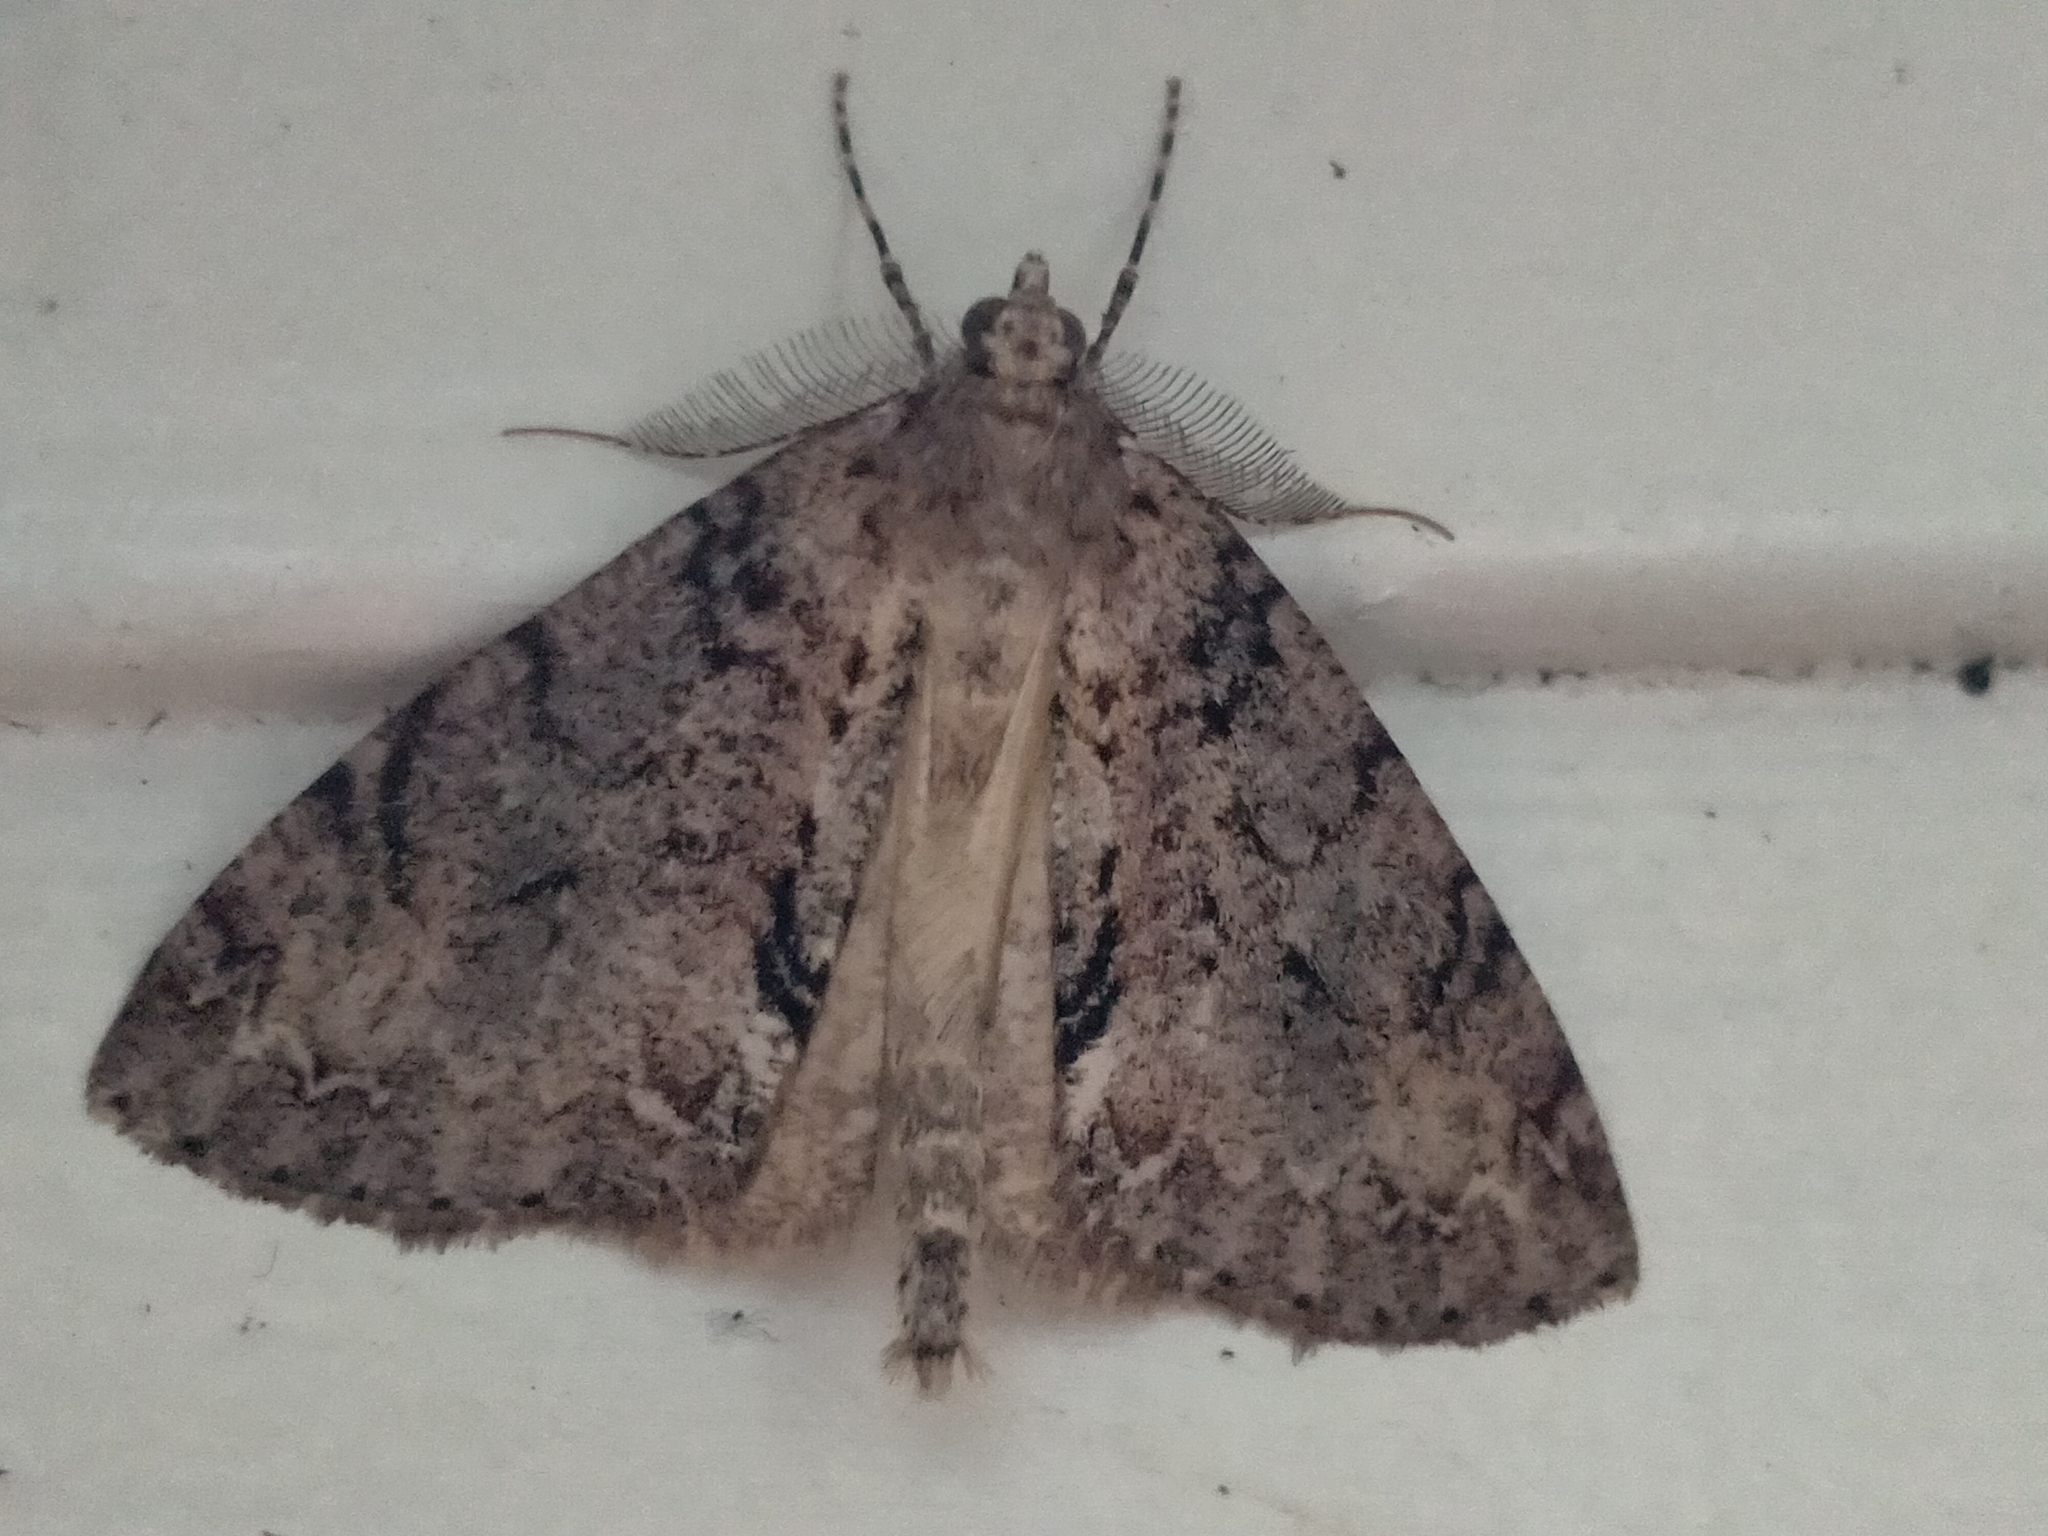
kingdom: Animalia
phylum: Arthropoda
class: Insecta
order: Lepidoptera
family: Geometridae
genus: Pseudocoremia
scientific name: Pseudocoremia suavis
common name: Common forest looper
